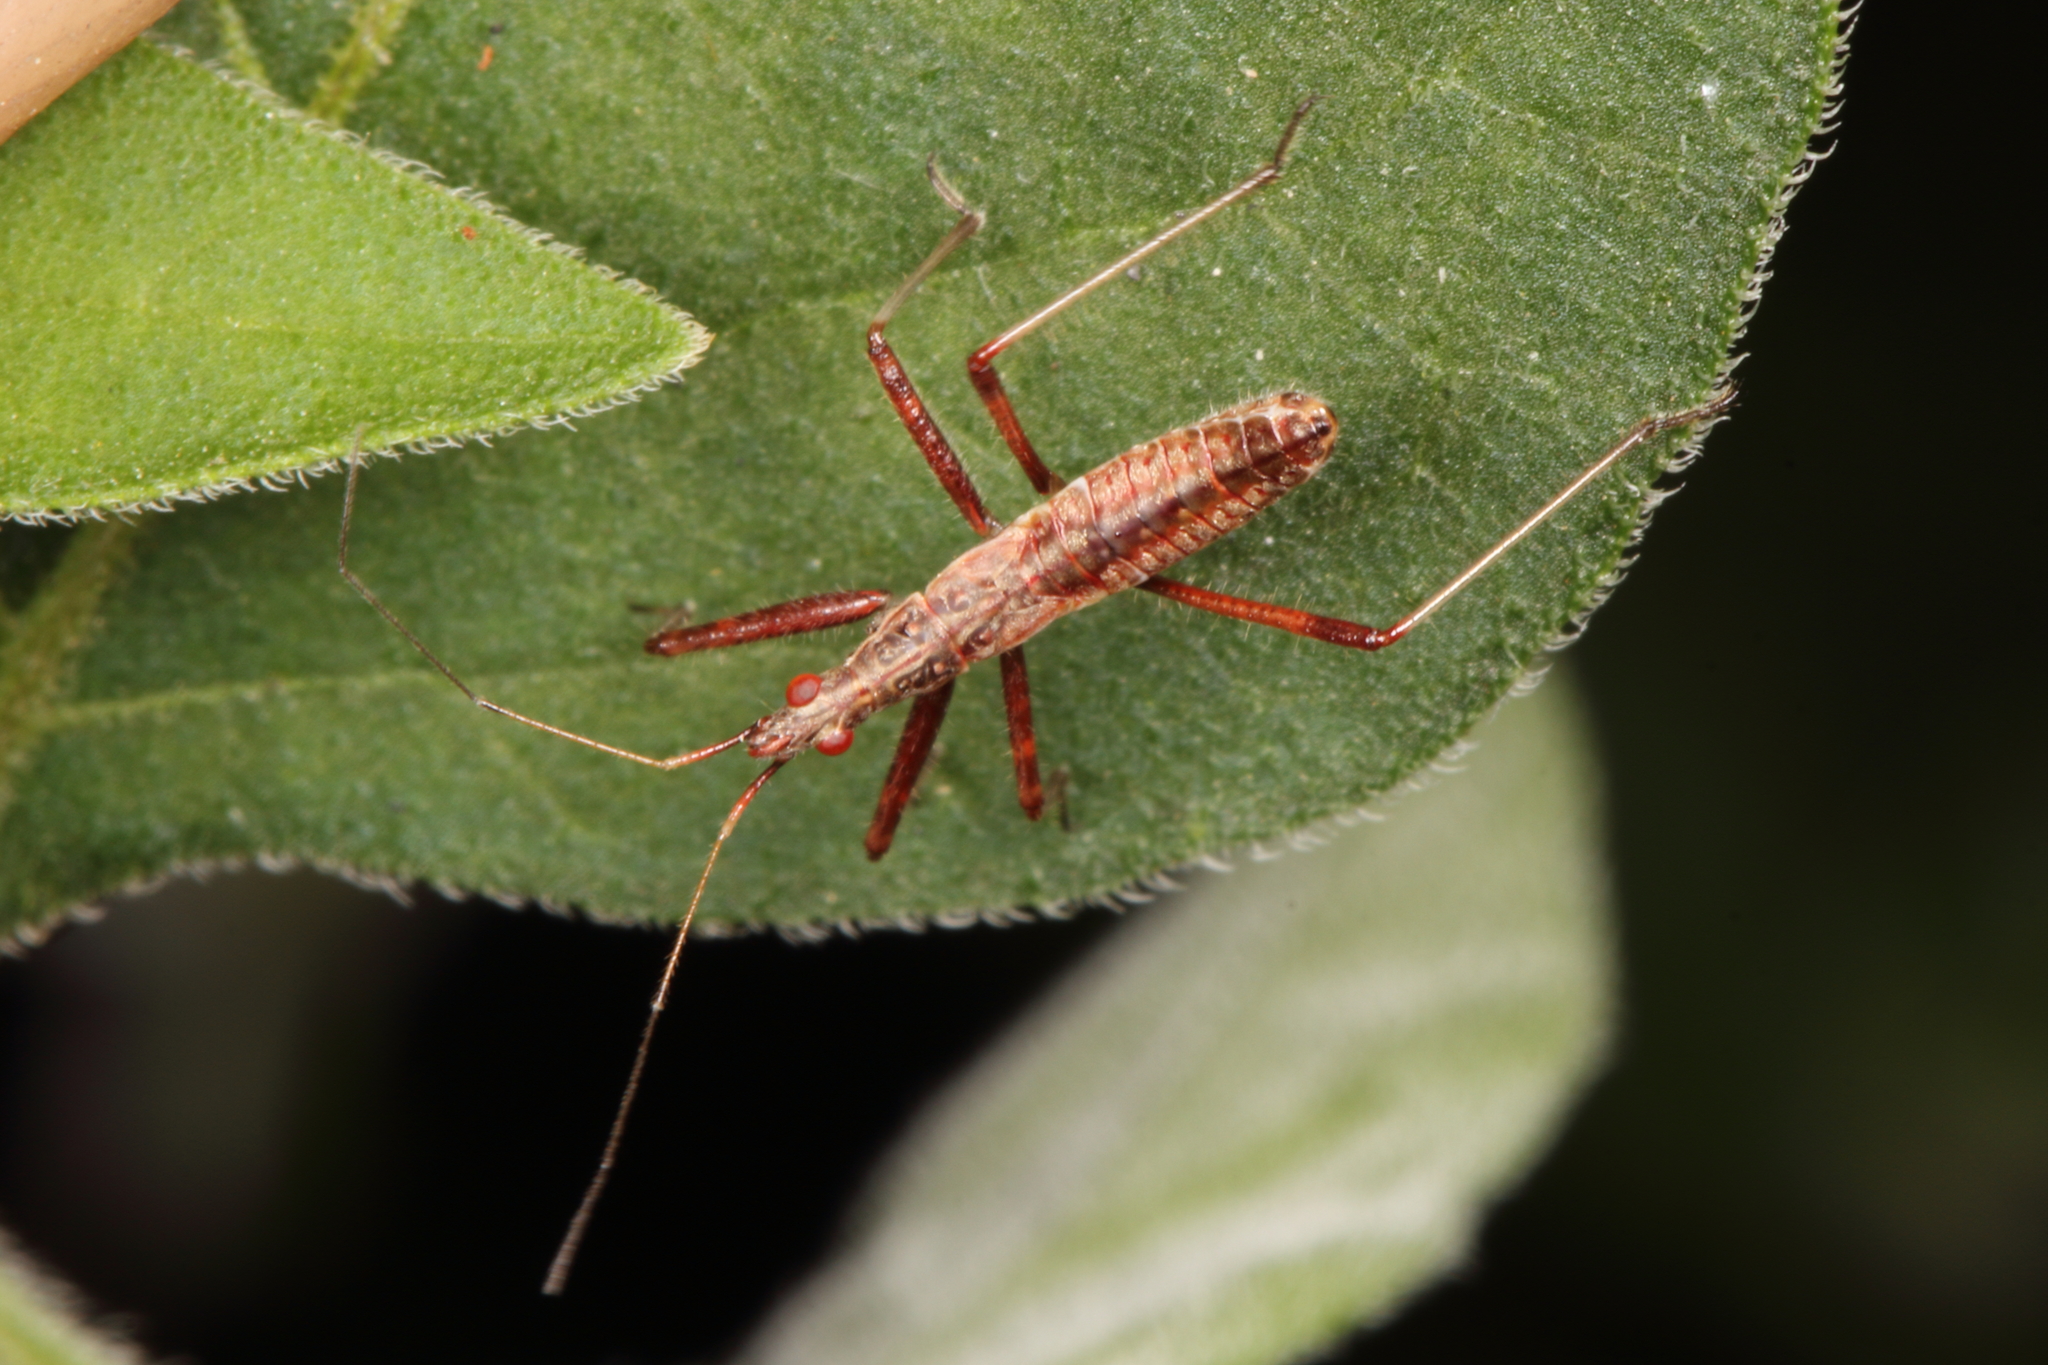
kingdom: Animalia
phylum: Arthropoda
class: Insecta
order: Hemiptera
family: Nabidae
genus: Nabis
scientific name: Nabis
